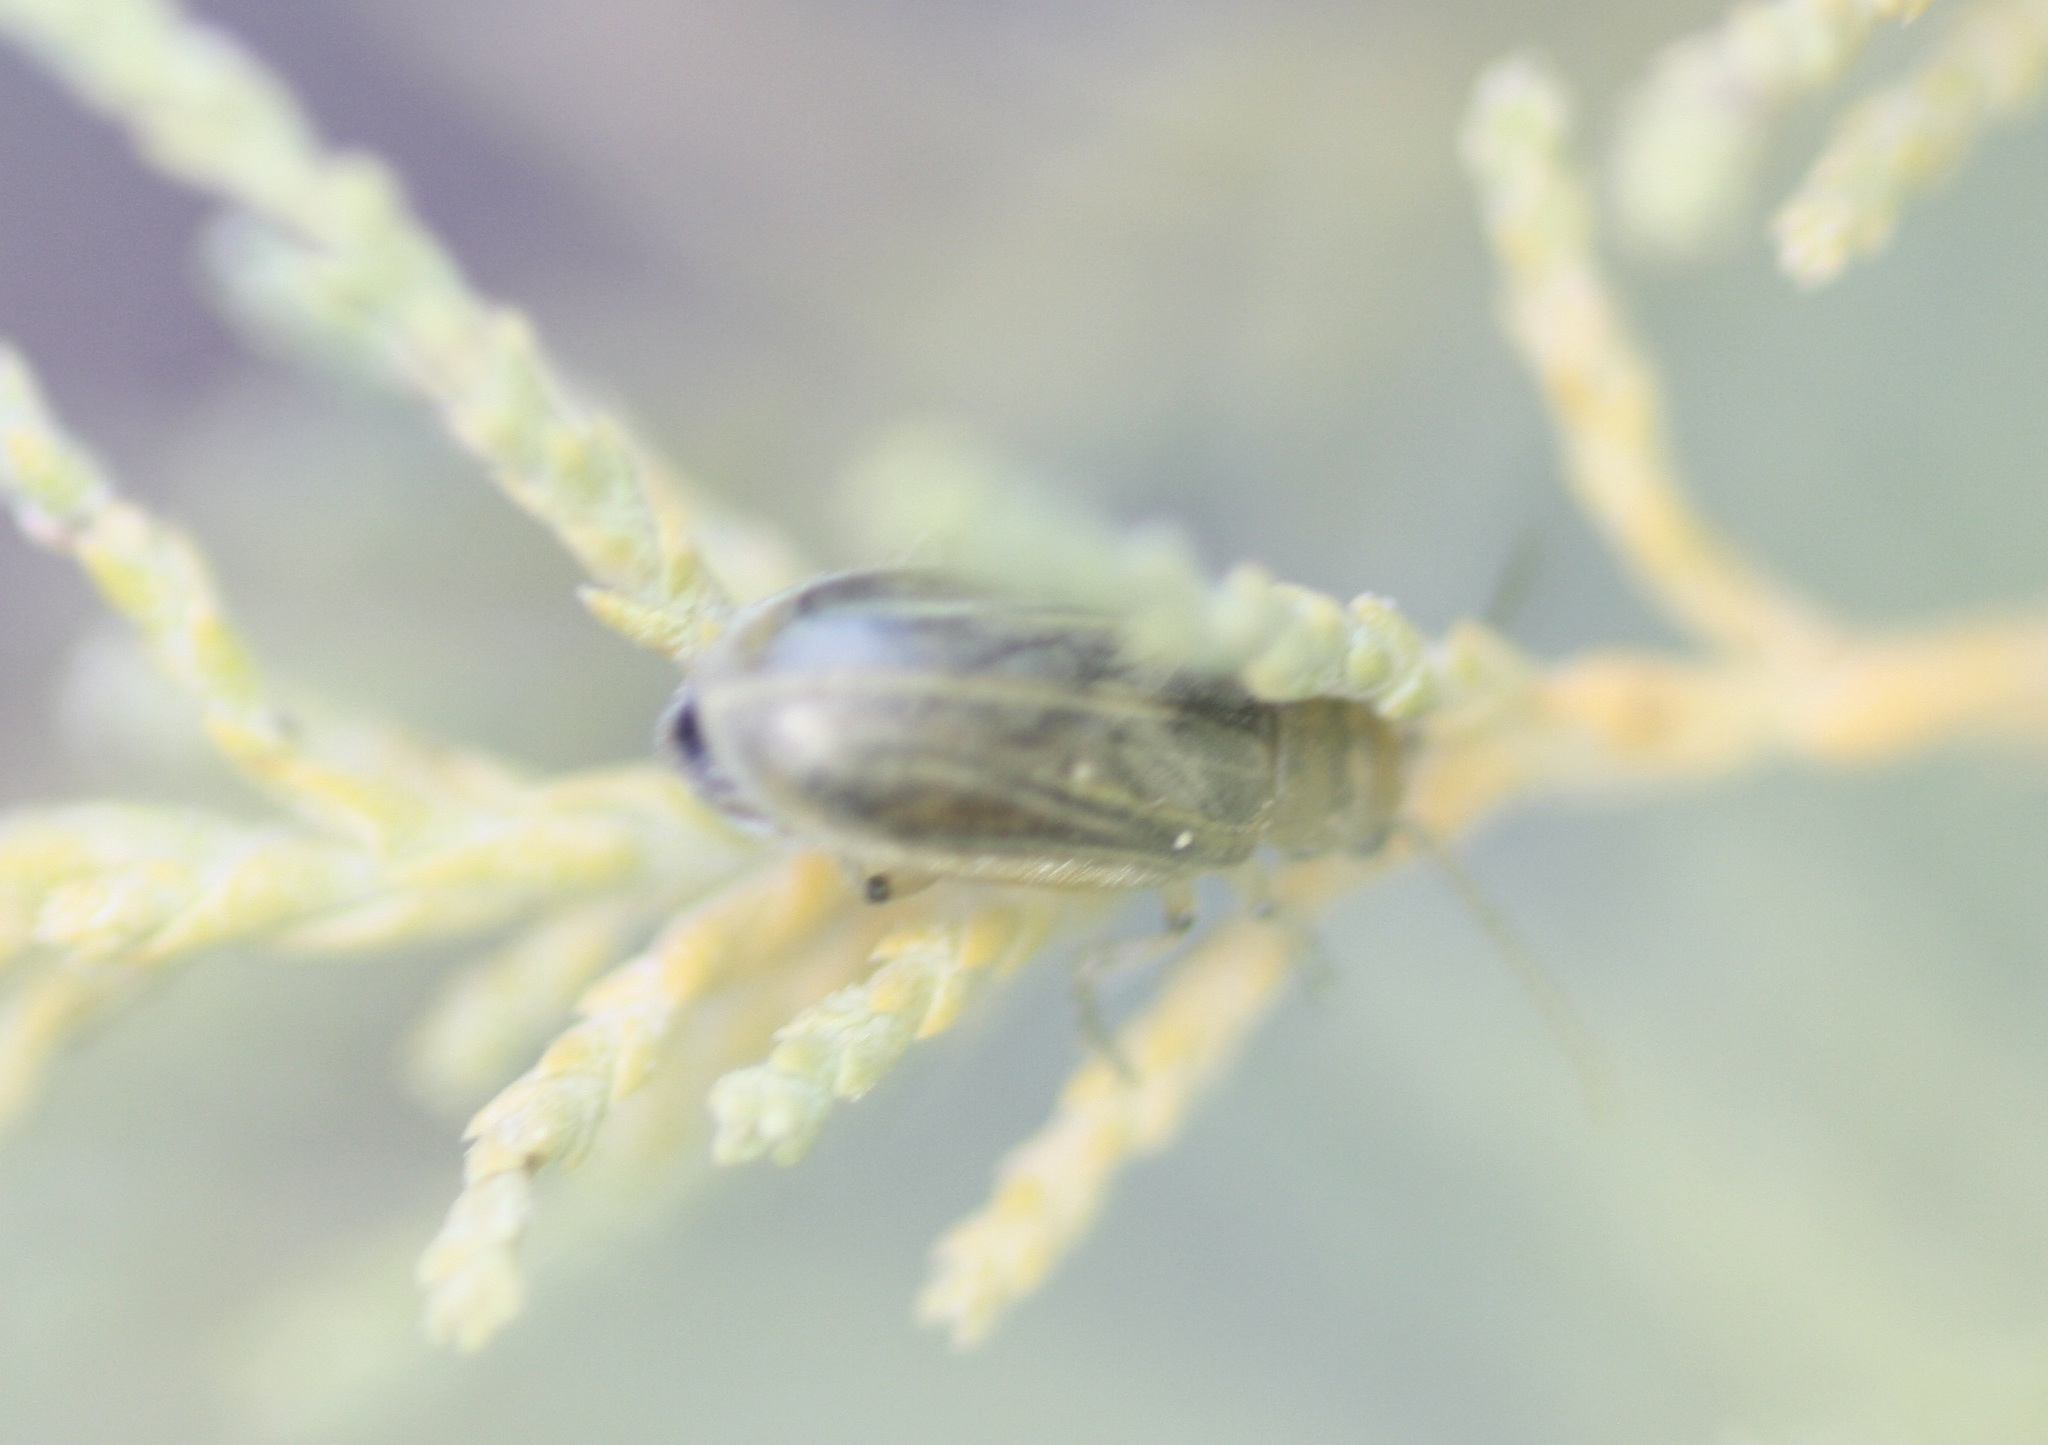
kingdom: Animalia
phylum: Arthropoda
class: Insecta
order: Coleoptera
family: Chrysomelidae
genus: Diorhabda
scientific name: Diorhabda carinulata
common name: Tamarisk leaf beetle
